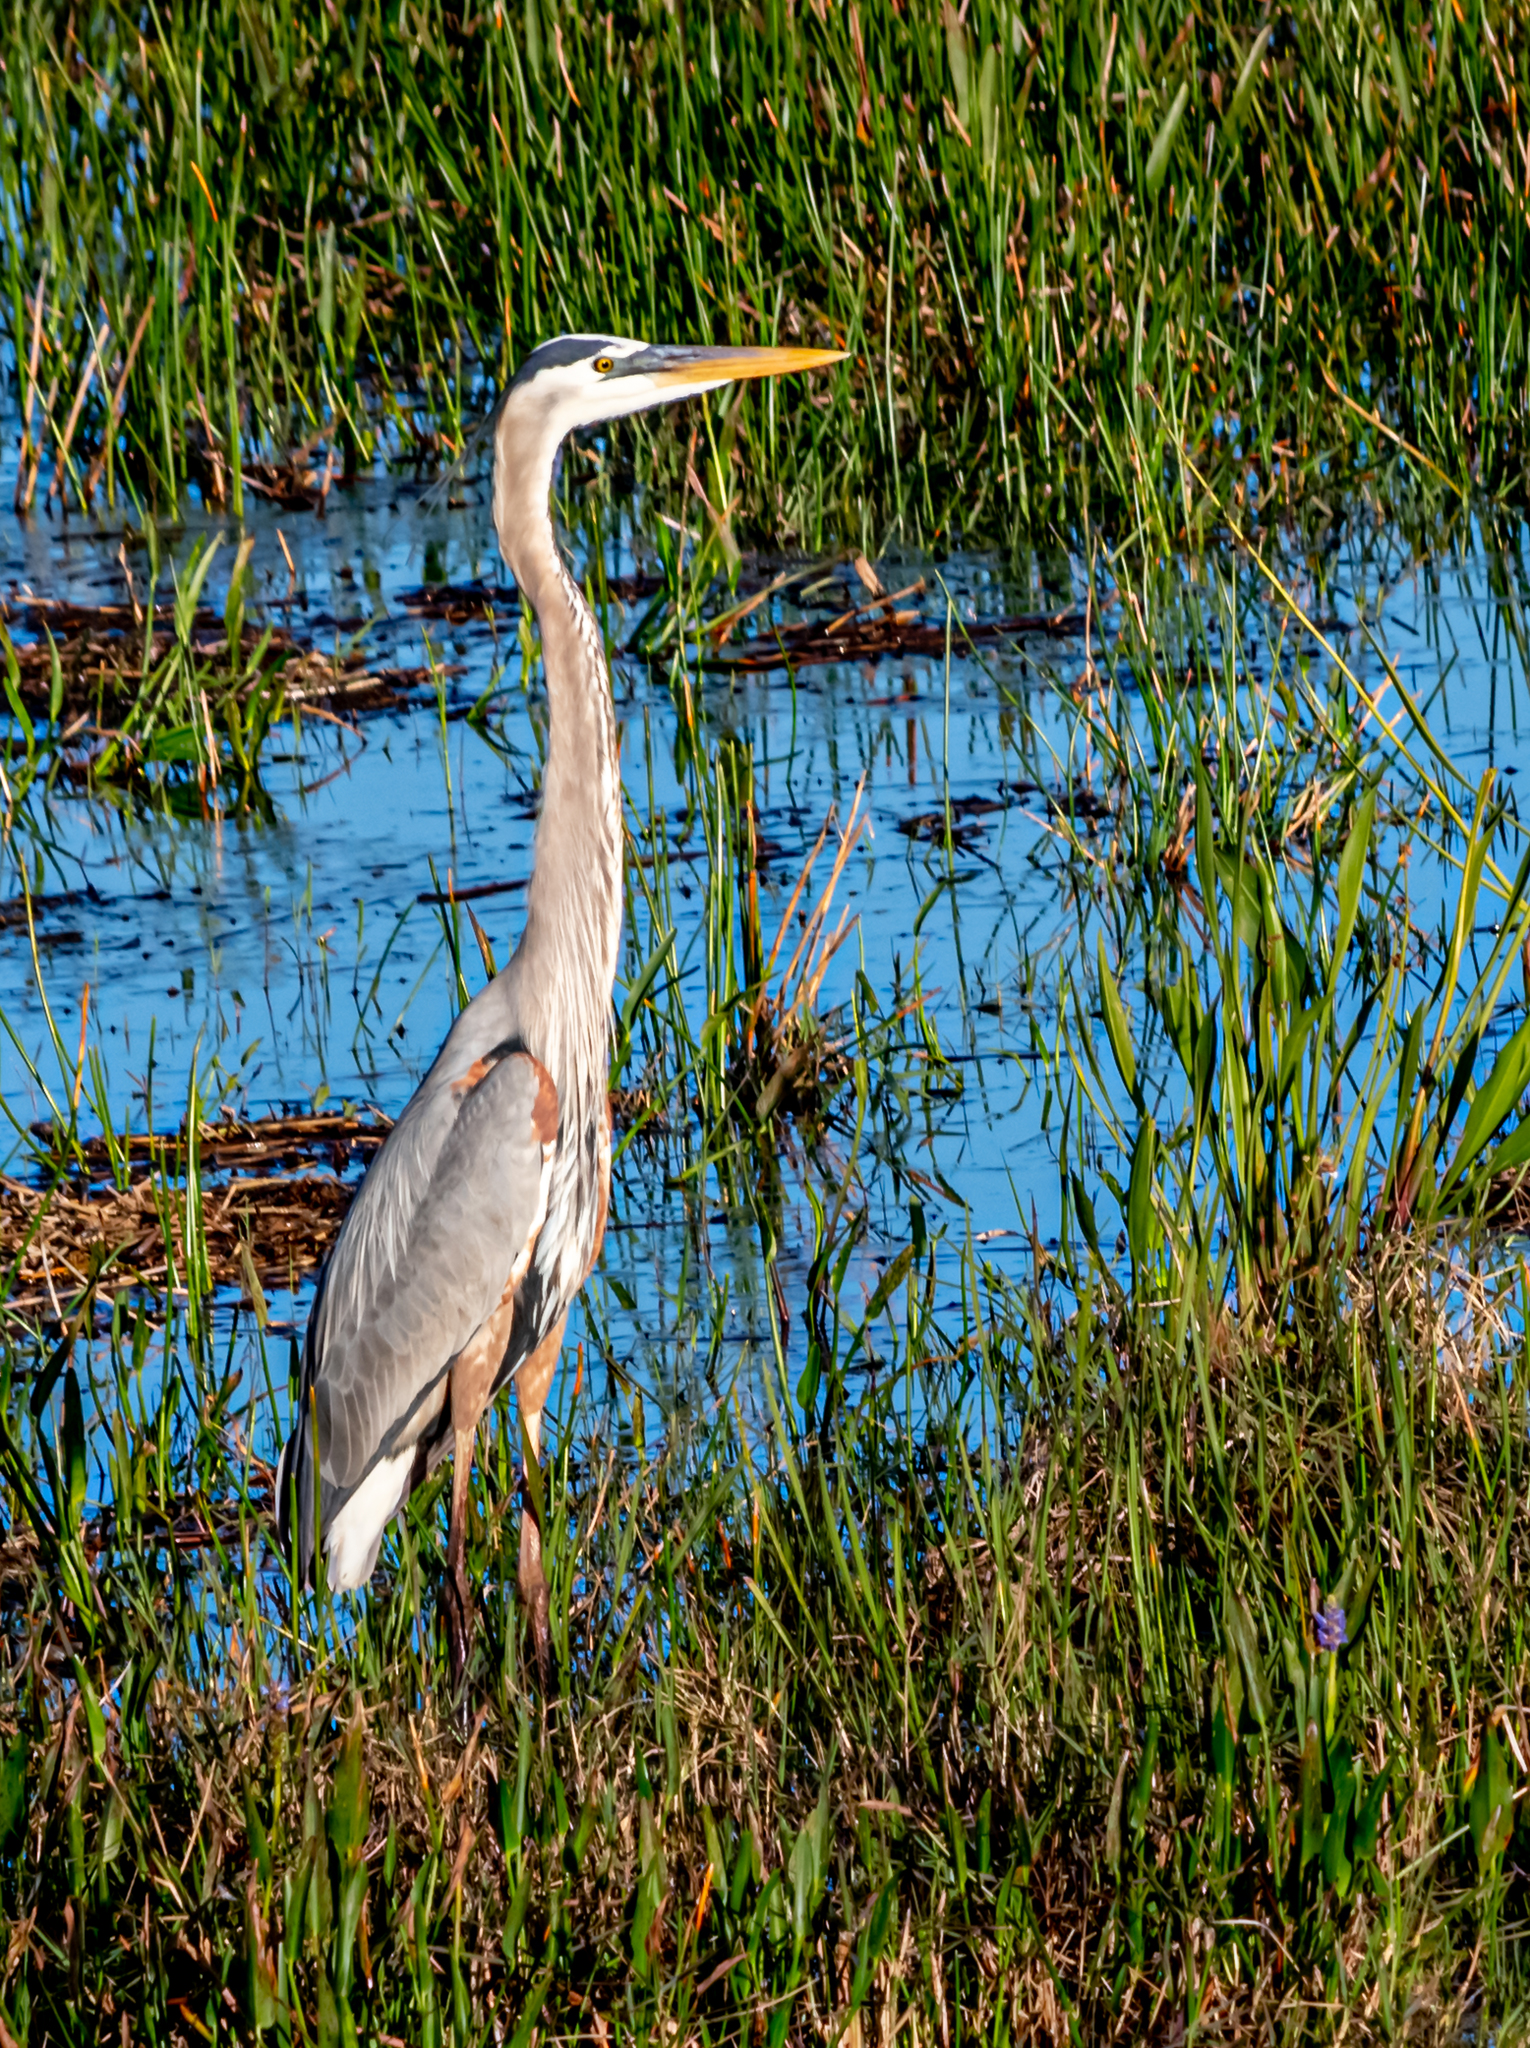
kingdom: Animalia
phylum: Chordata
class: Aves
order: Pelecaniformes
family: Ardeidae
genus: Ardea
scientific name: Ardea herodias
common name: Great blue heron
